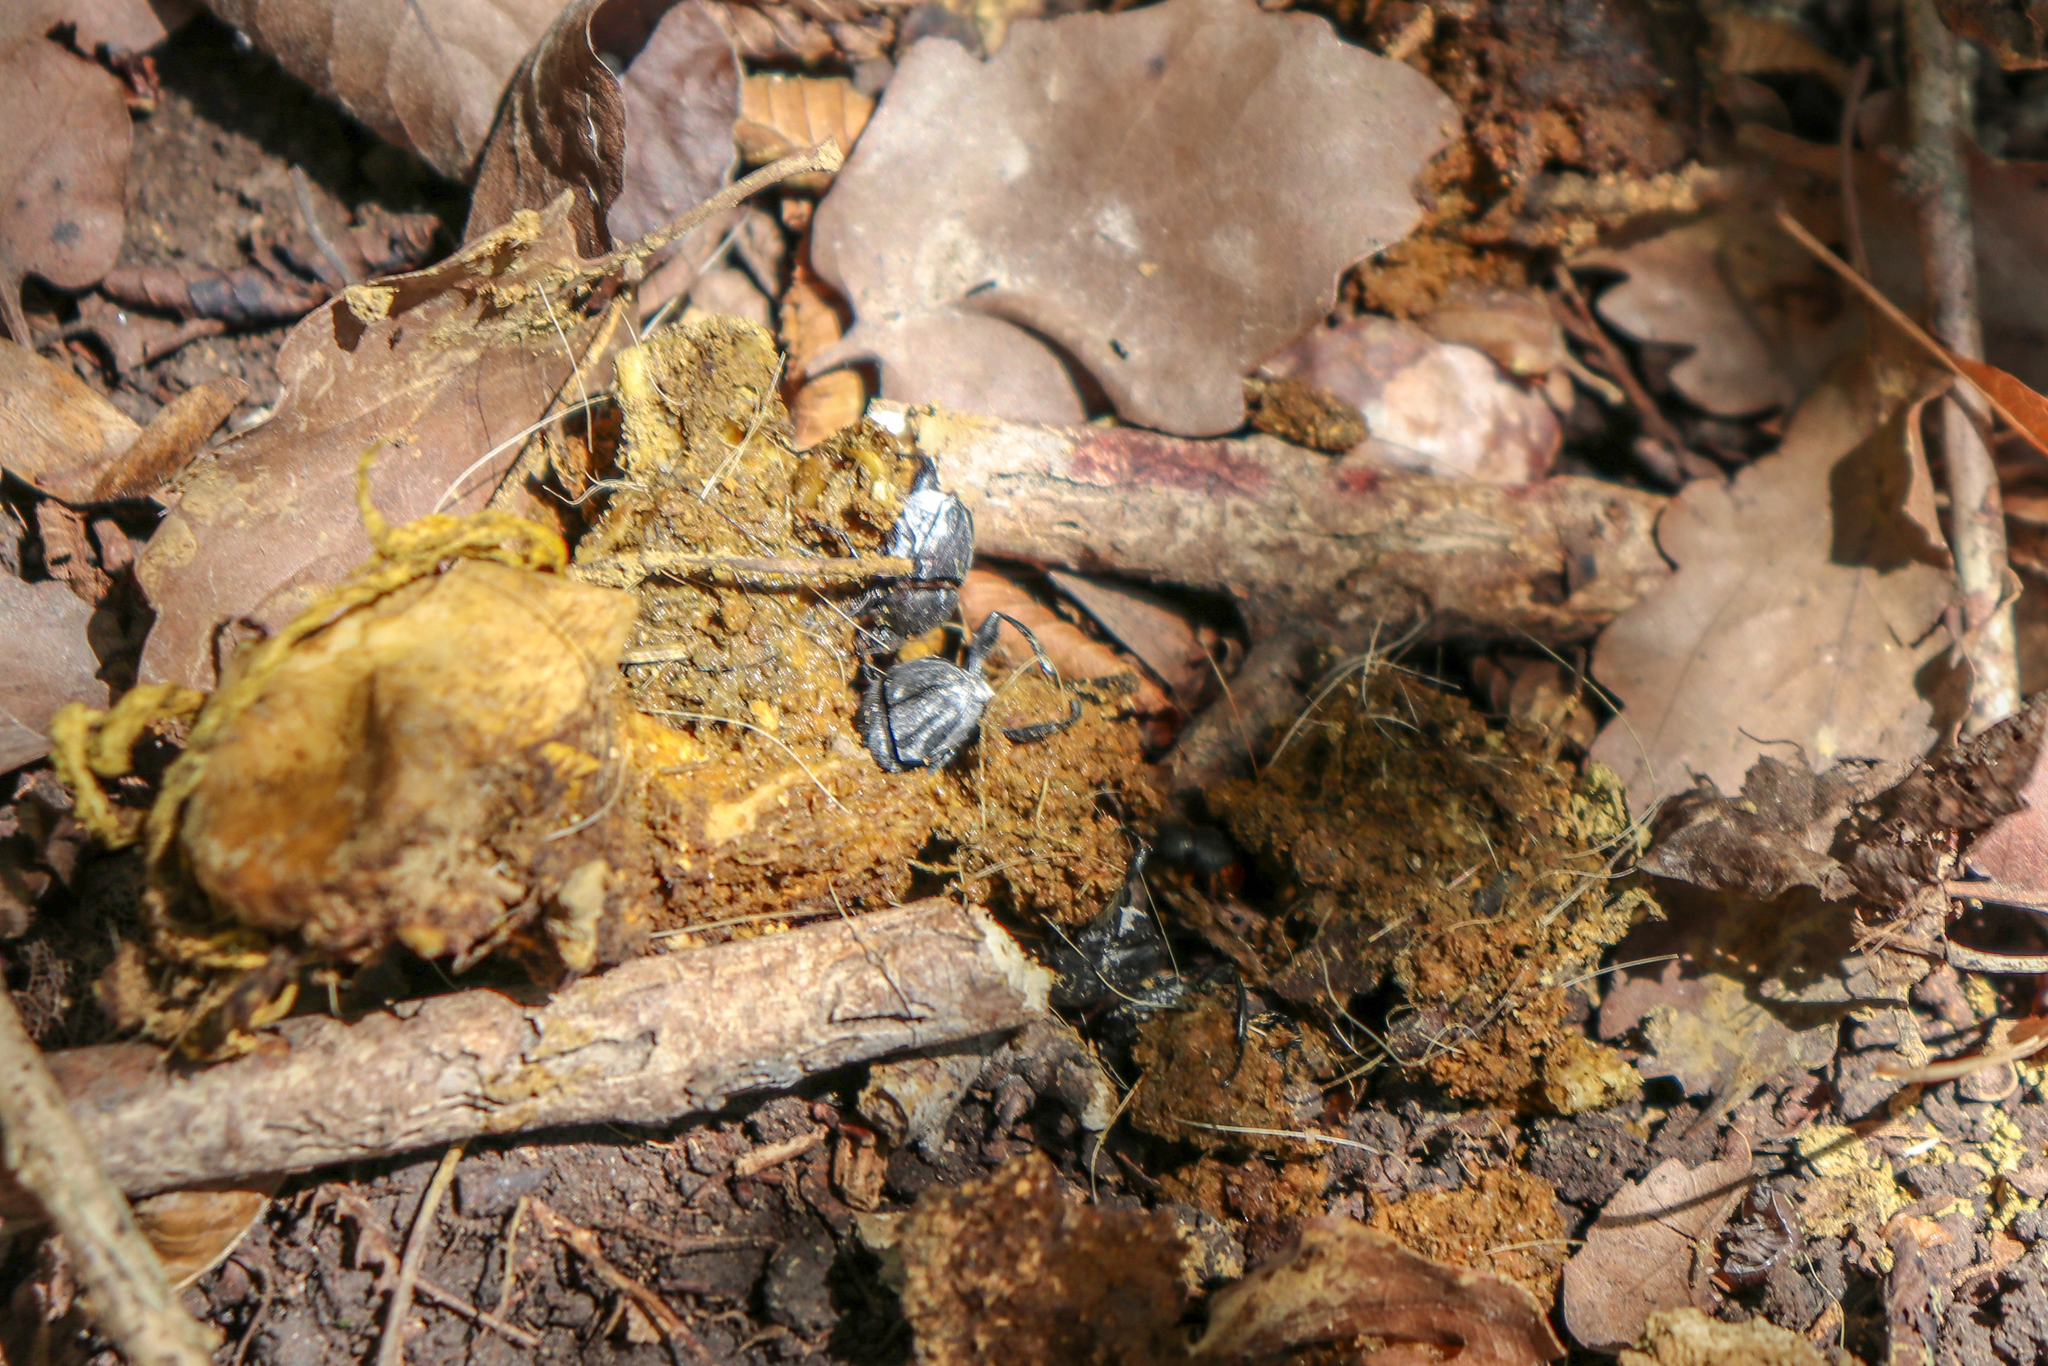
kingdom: Animalia
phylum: Arthropoda
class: Insecta
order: Coleoptera
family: Scarabaeidae
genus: Sisyphus
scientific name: Sisyphus schaefferi
